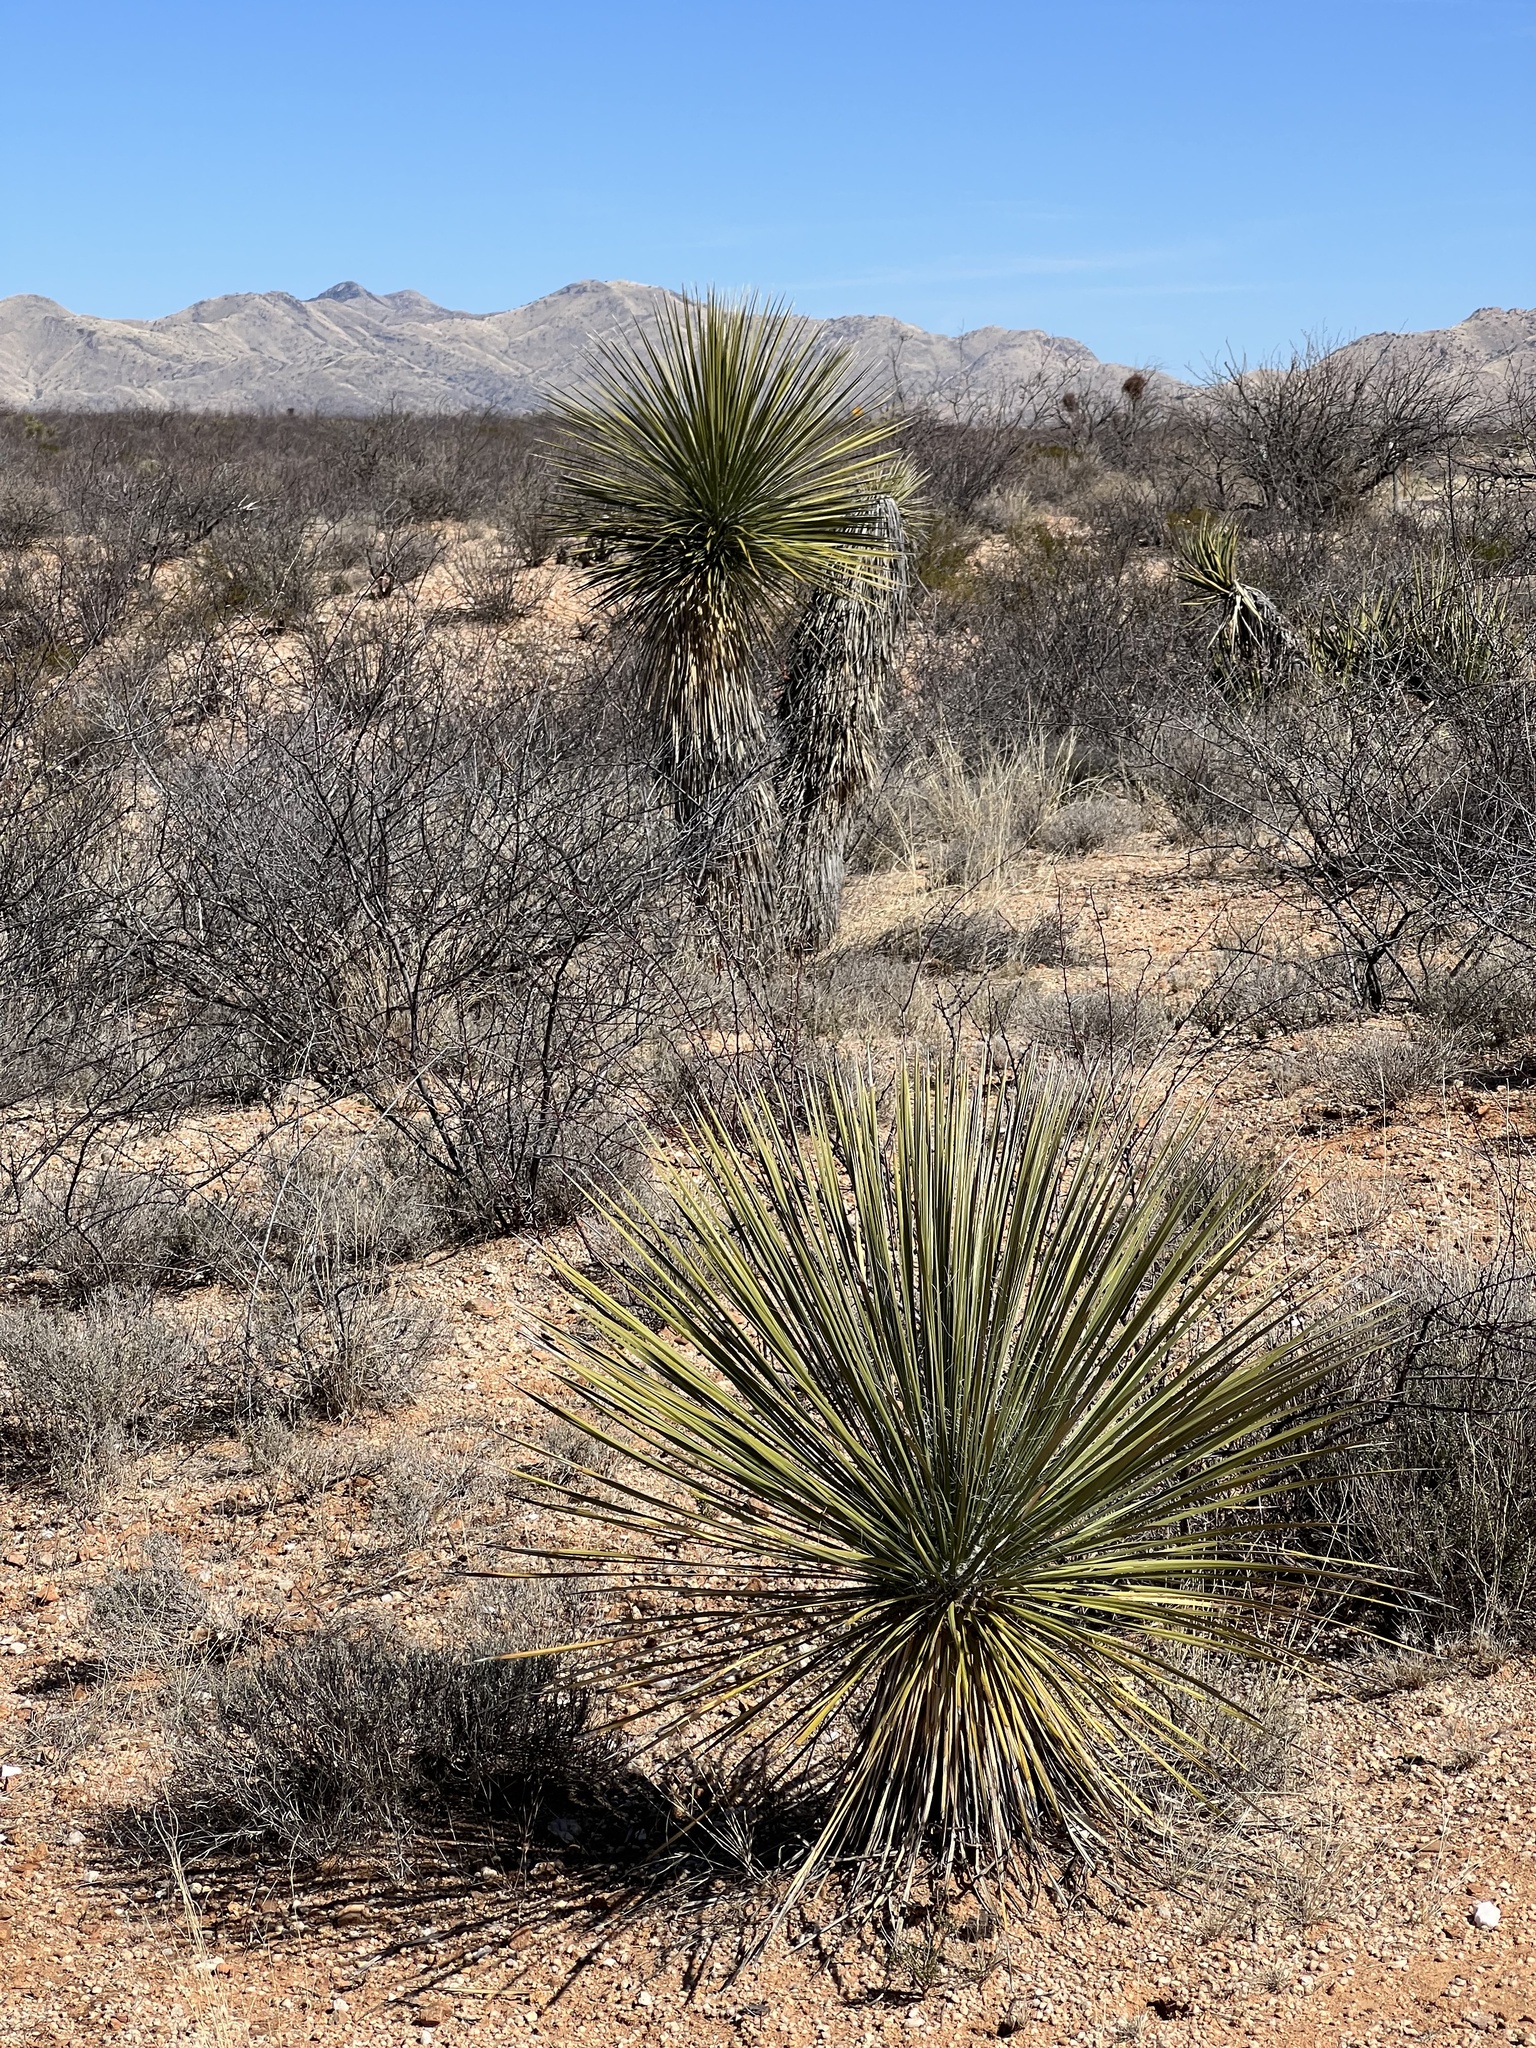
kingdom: Plantae
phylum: Tracheophyta
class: Liliopsida
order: Asparagales
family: Asparagaceae
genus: Yucca
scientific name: Yucca elata
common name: Palmella
